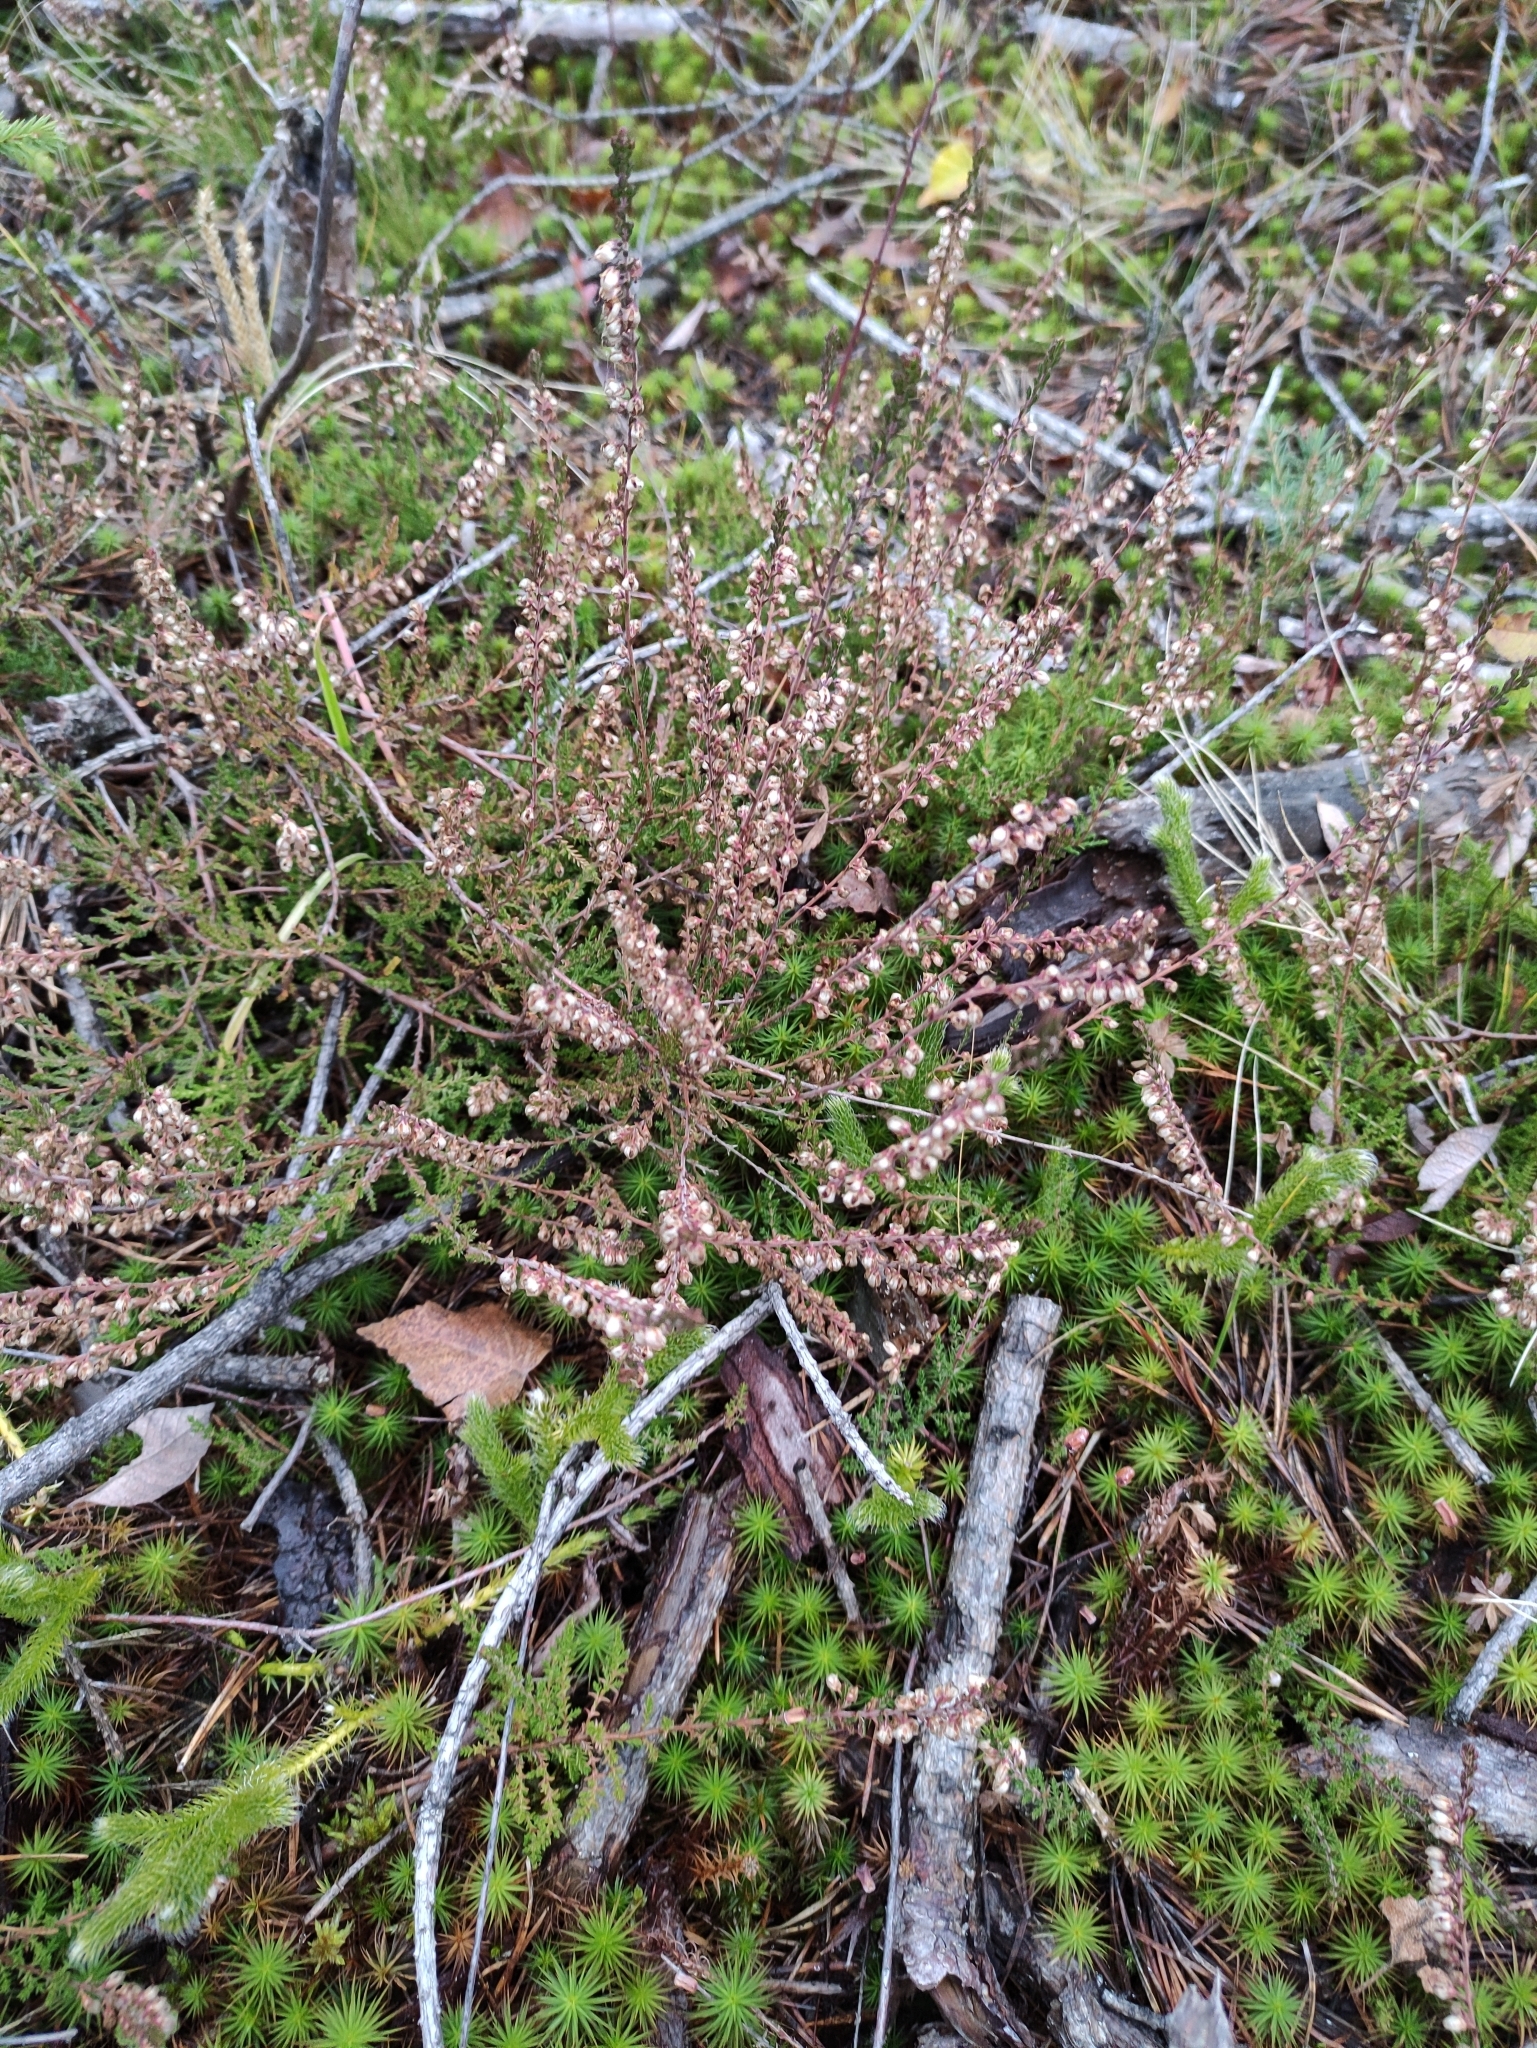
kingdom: Plantae
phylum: Tracheophyta
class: Magnoliopsida
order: Ericales
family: Ericaceae
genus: Calluna
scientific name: Calluna vulgaris
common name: Heather
